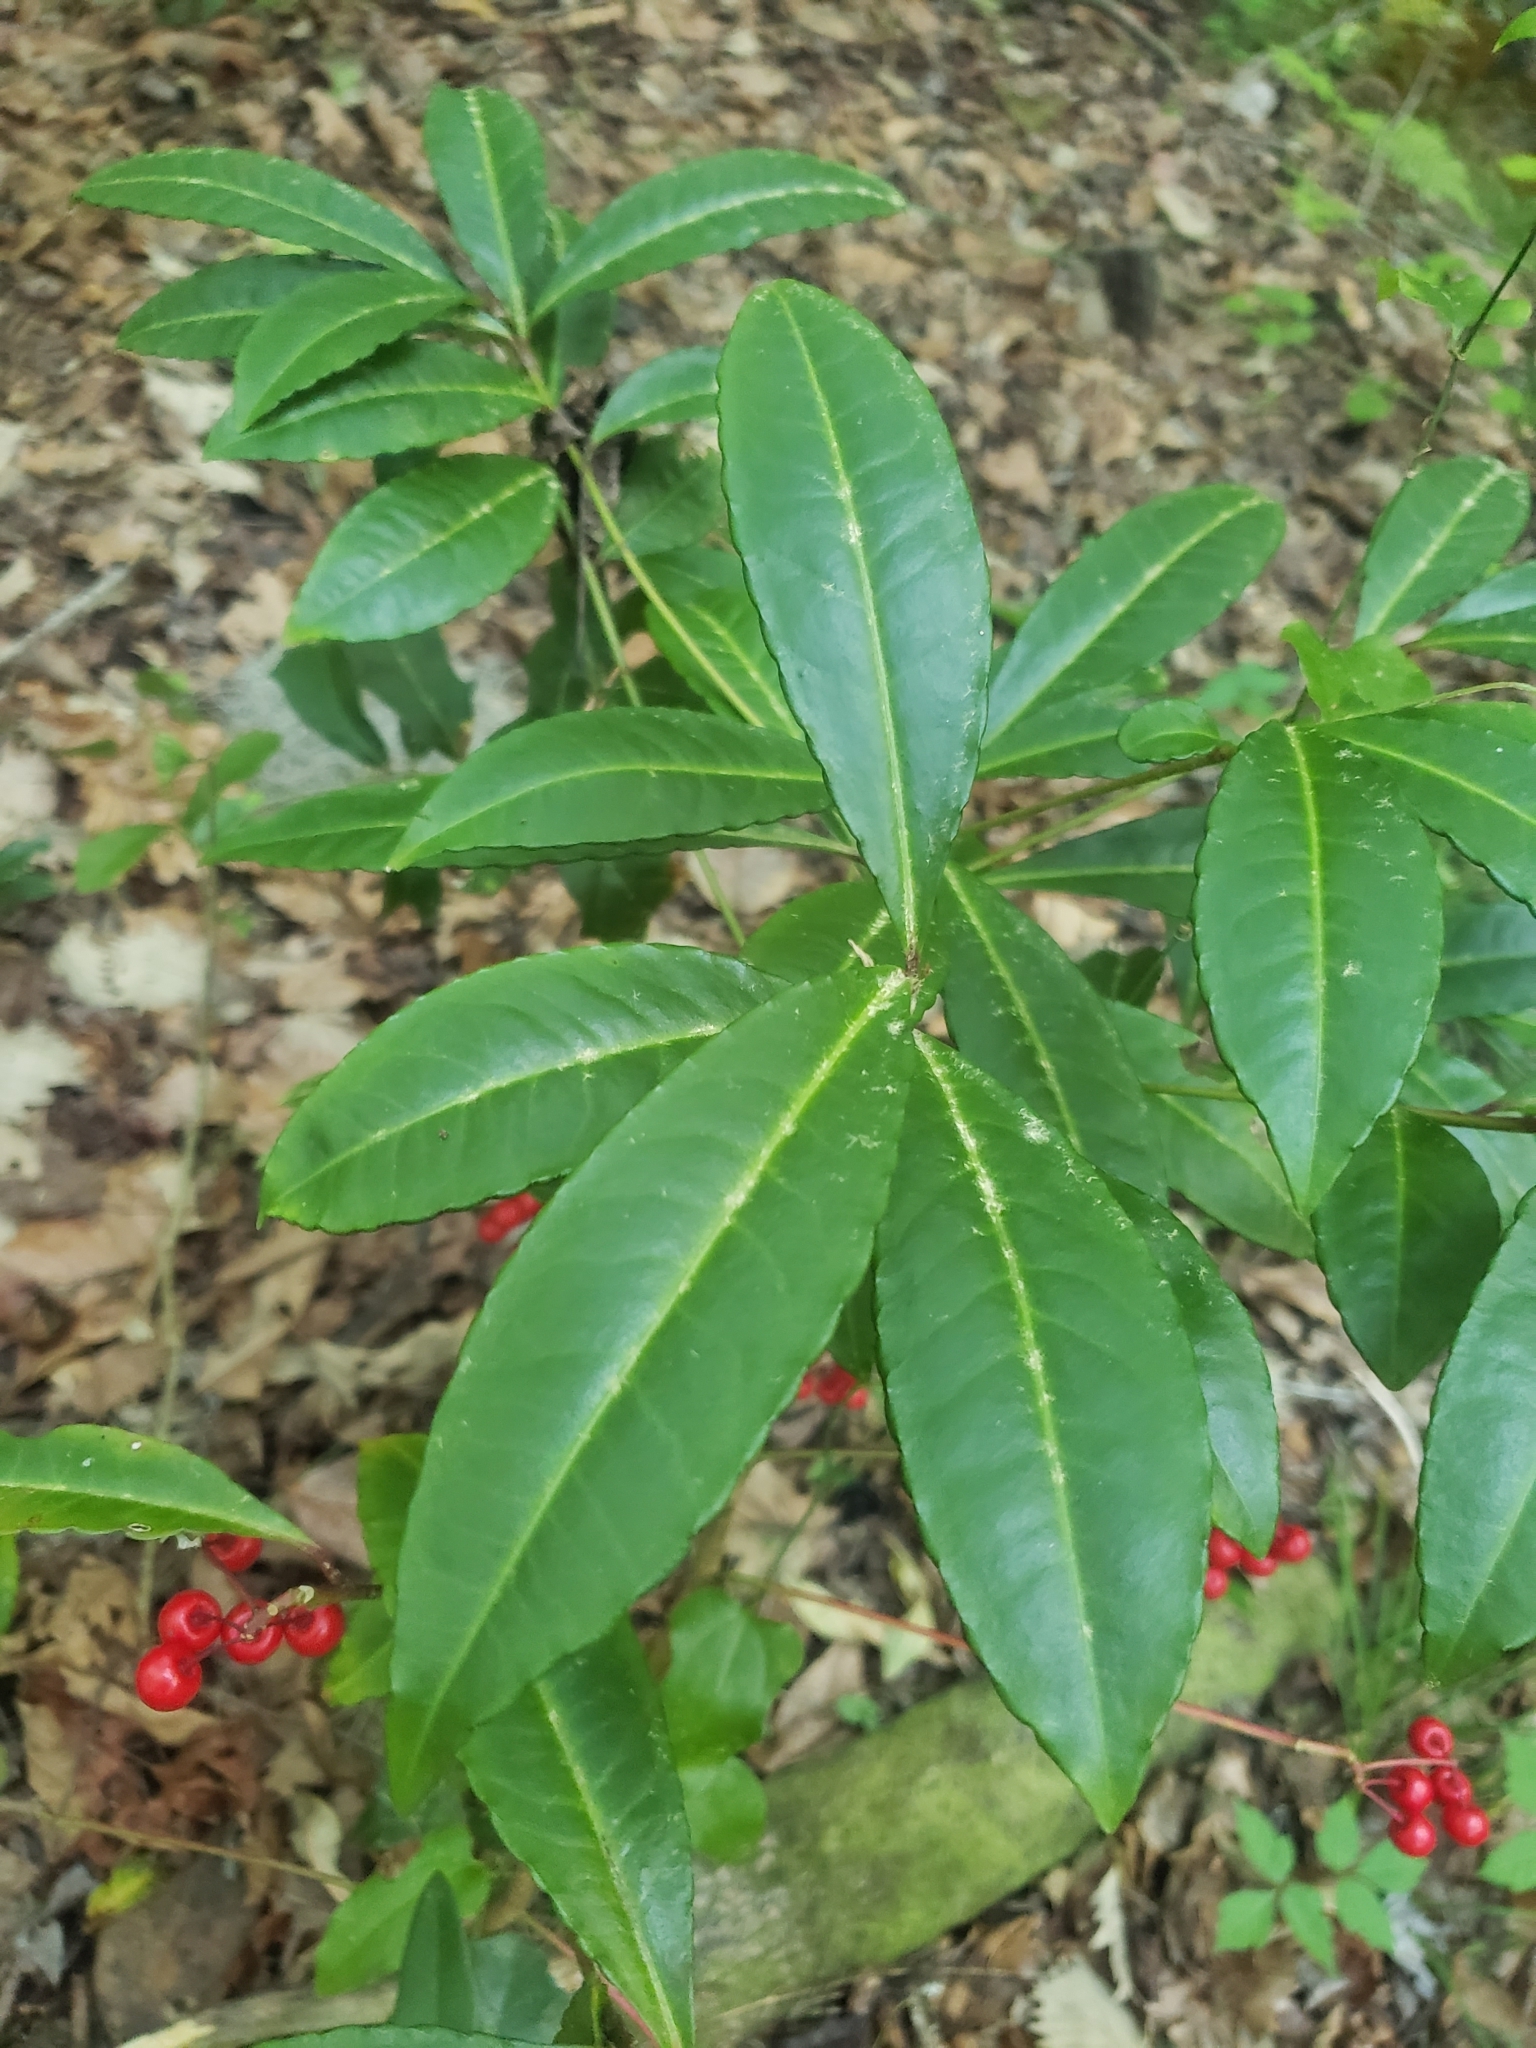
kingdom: Plantae
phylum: Tracheophyta
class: Magnoliopsida
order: Ericales
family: Primulaceae
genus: Ardisia
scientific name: Ardisia crenata
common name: Hen's eyes
